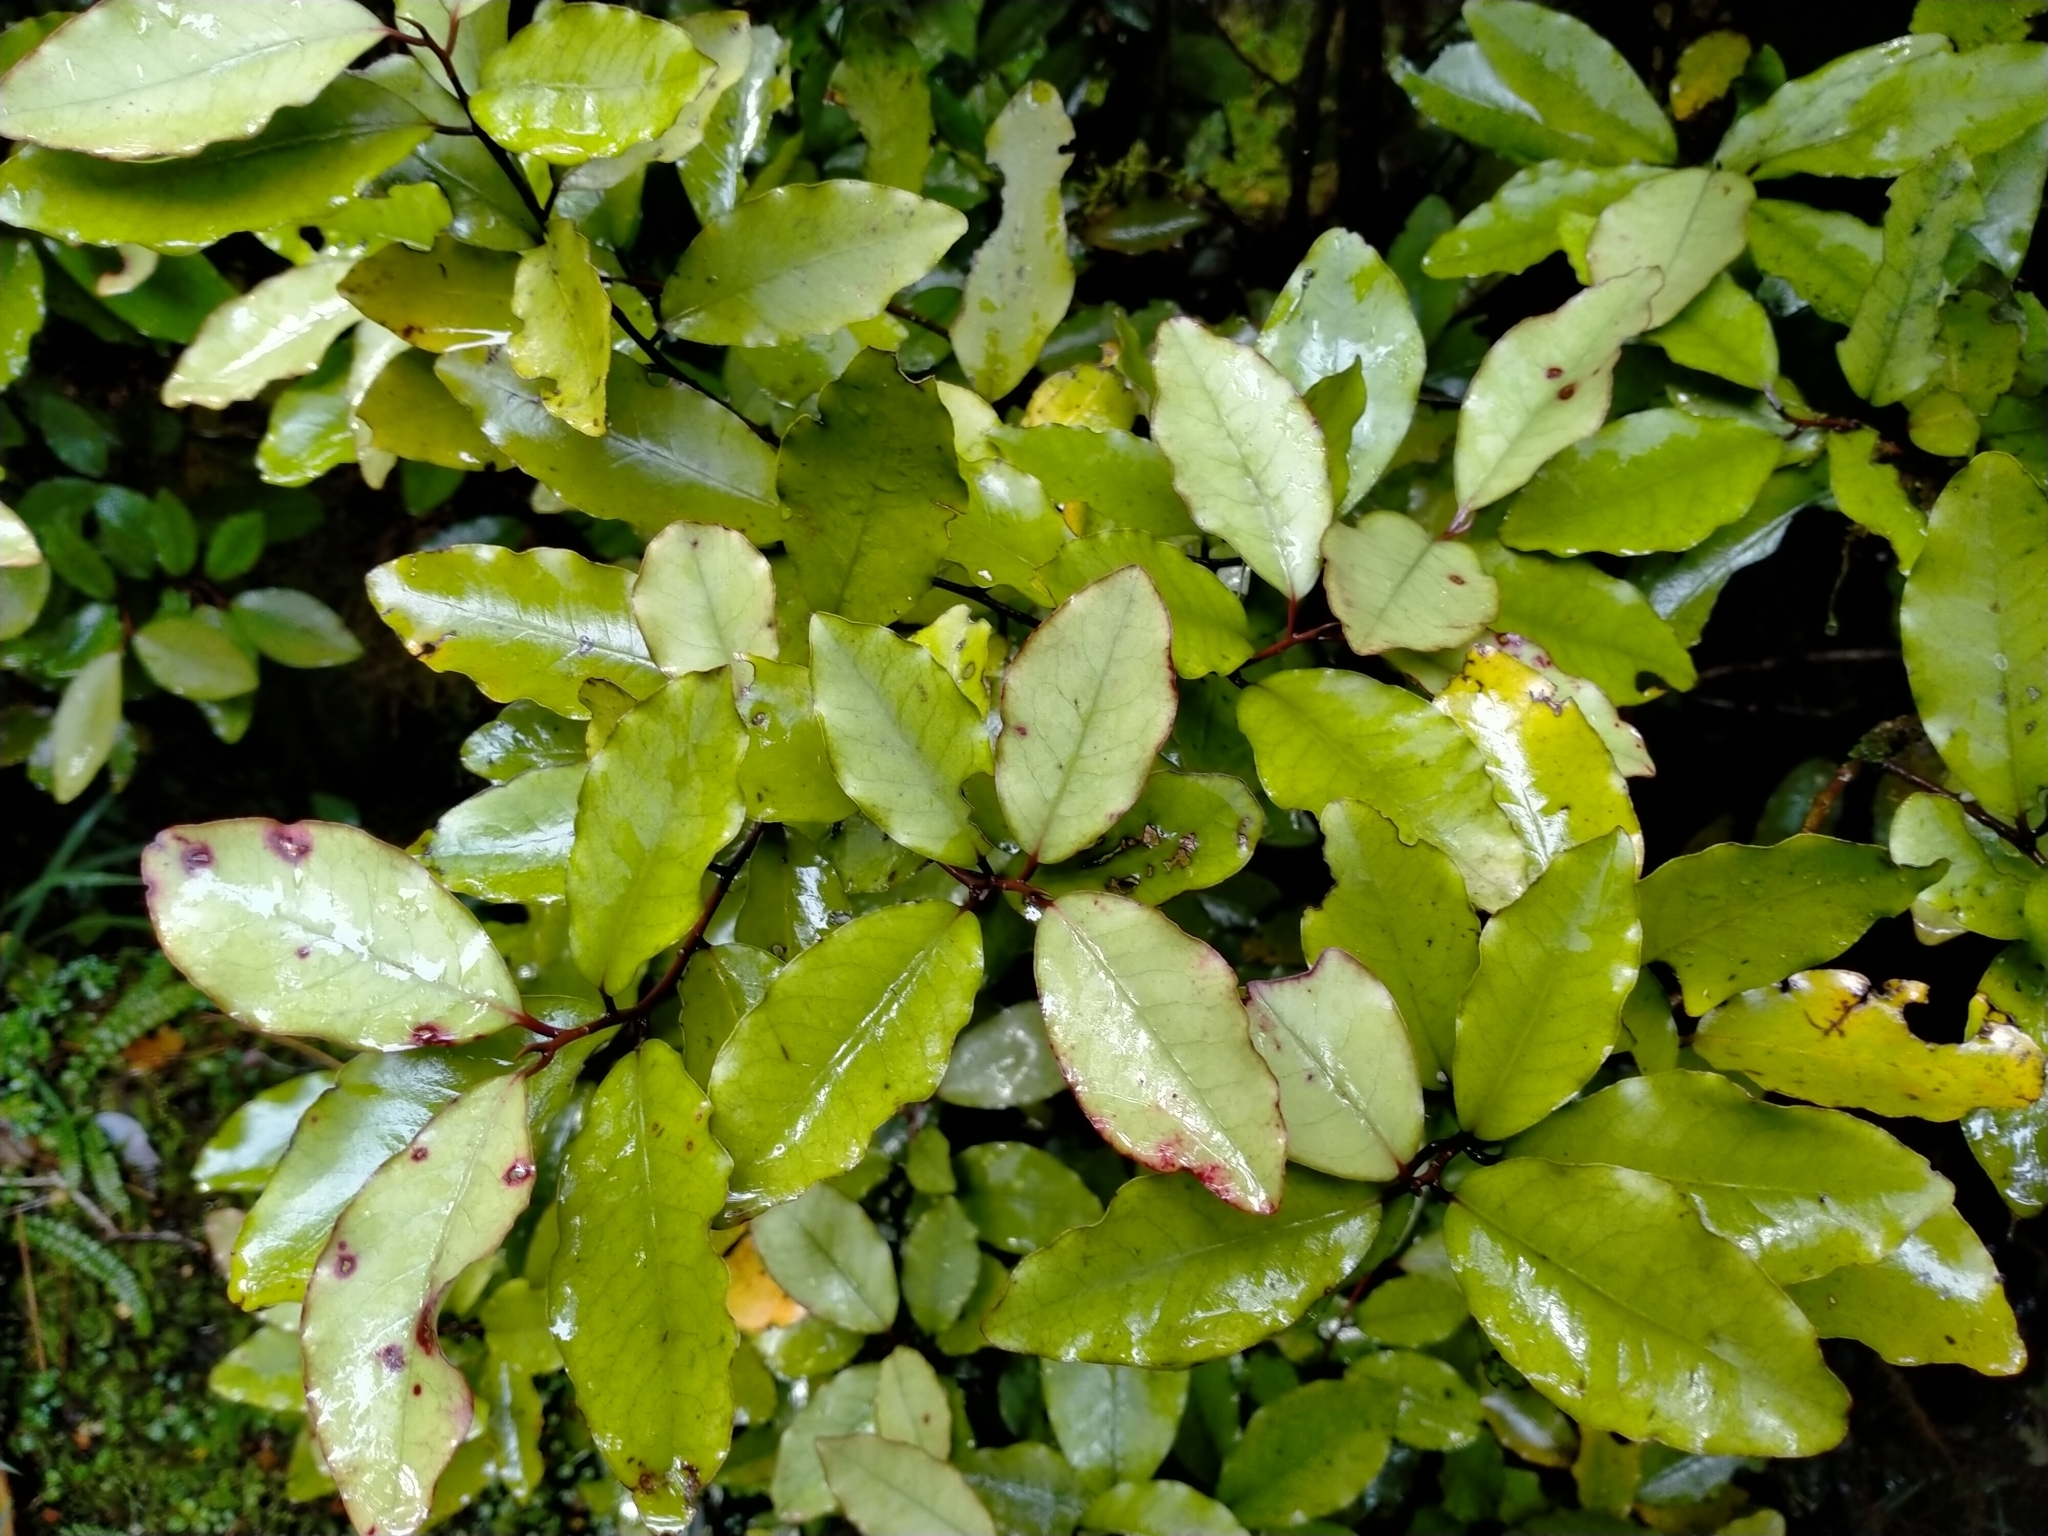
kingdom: Plantae
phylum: Tracheophyta
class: Magnoliopsida
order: Canellales
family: Winteraceae
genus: Pseudowintera
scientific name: Pseudowintera colorata
